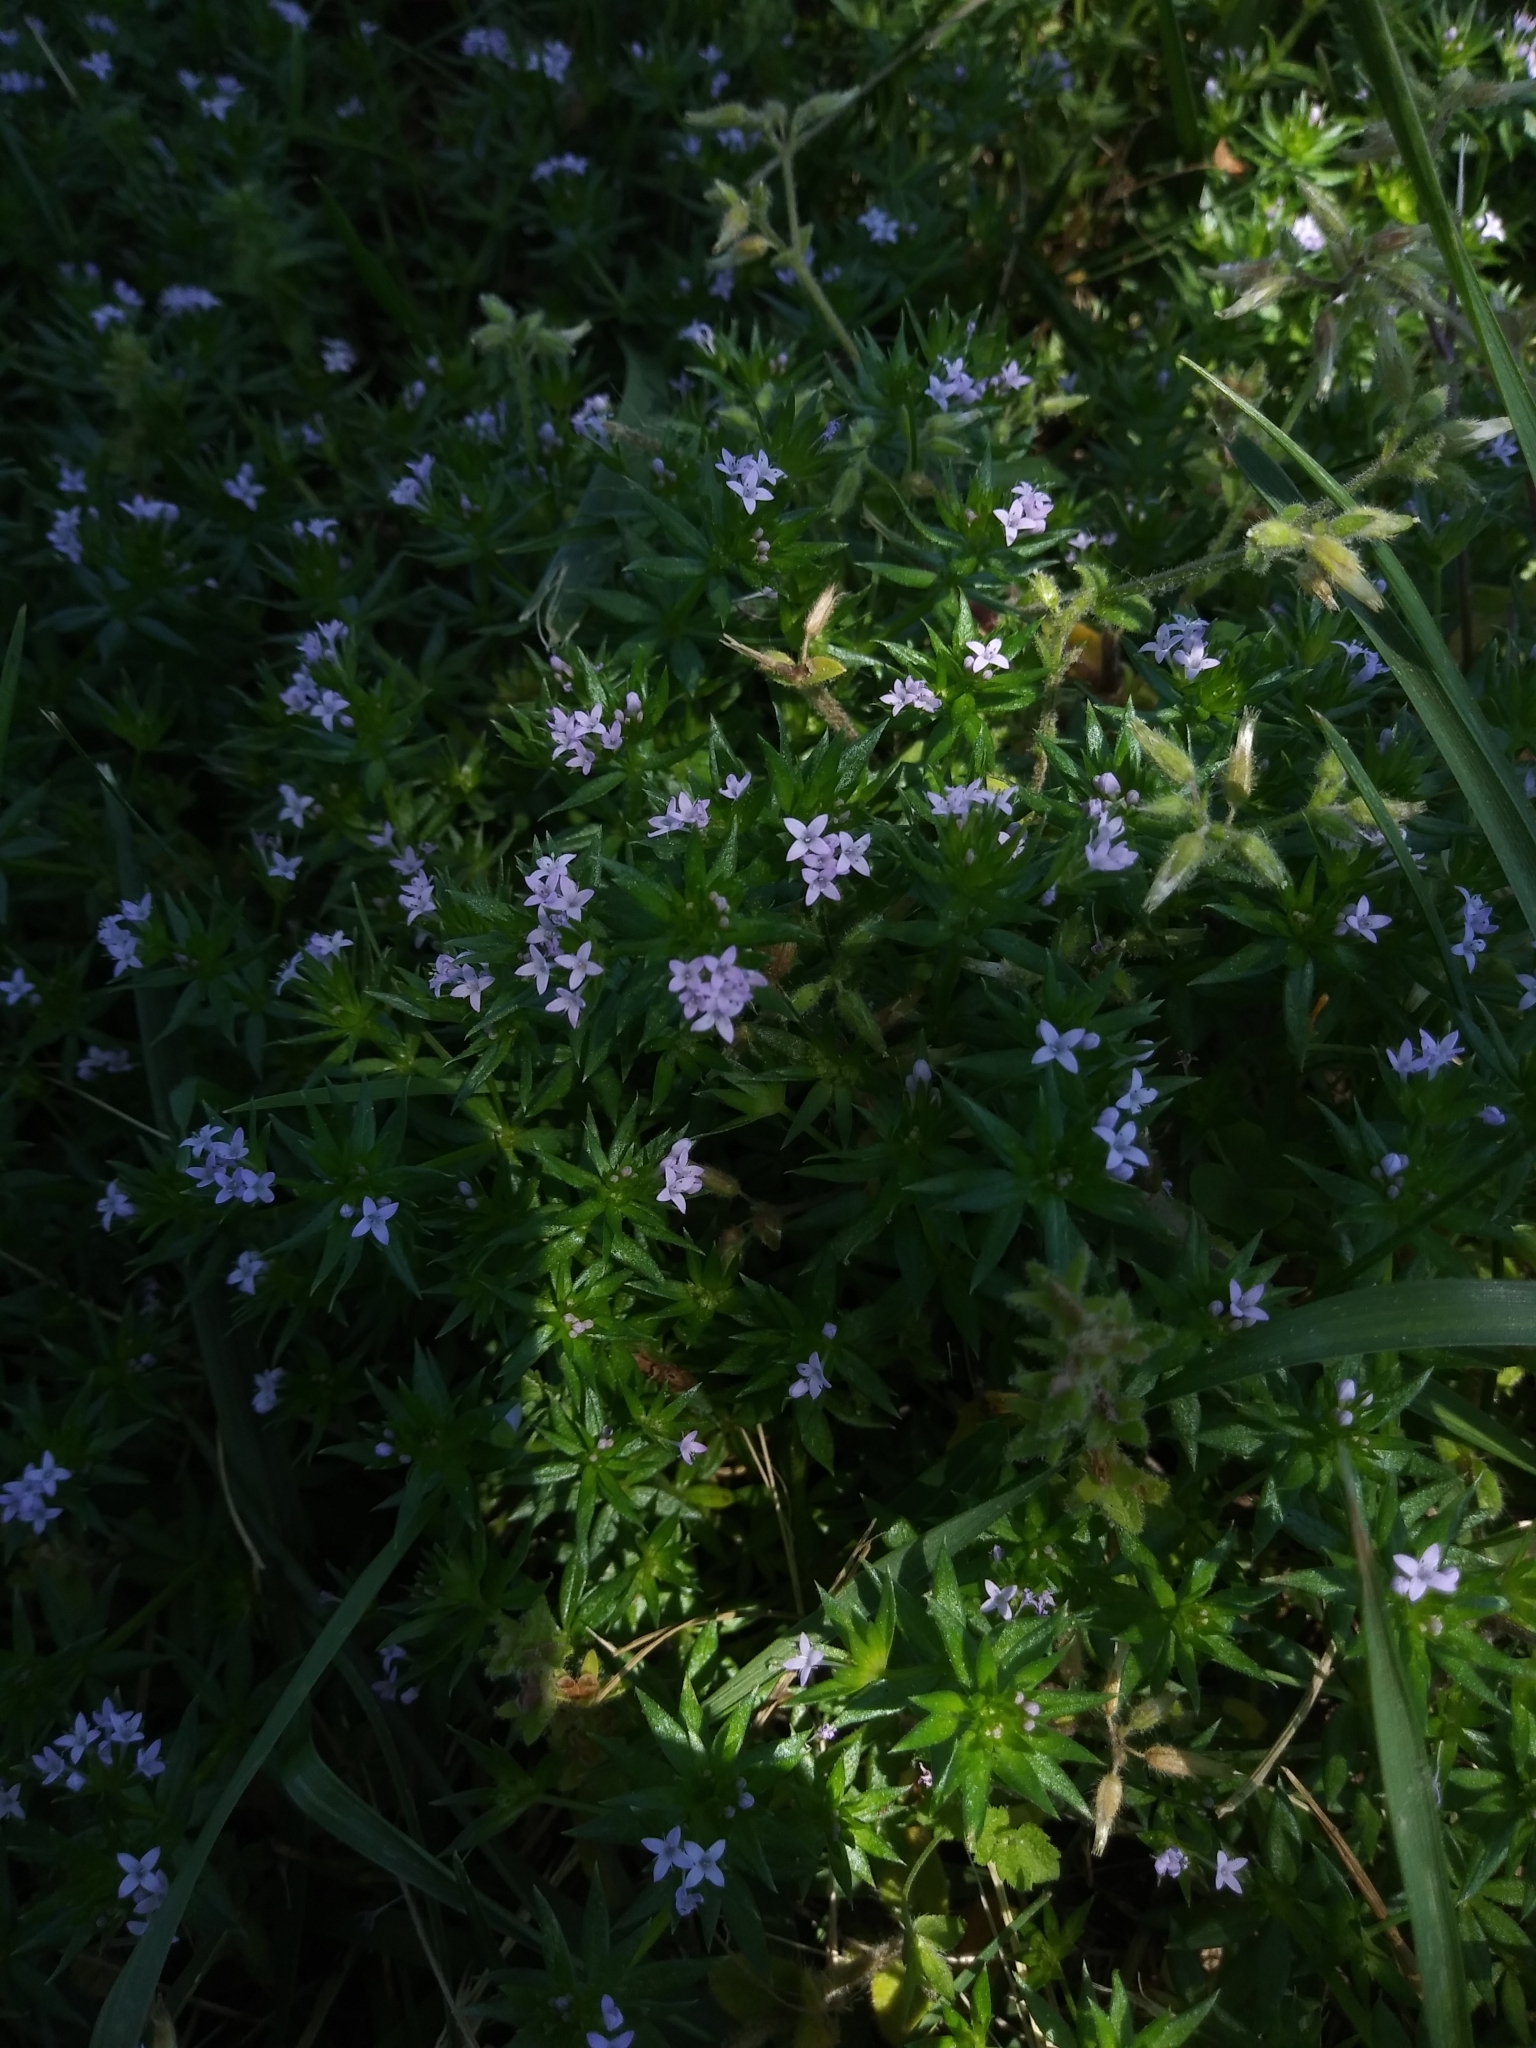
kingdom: Plantae
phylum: Tracheophyta
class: Magnoliopsida
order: Gentianales
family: Rubiaceae
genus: Sherardia
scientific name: Sherardia arvensis
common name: Field madder
